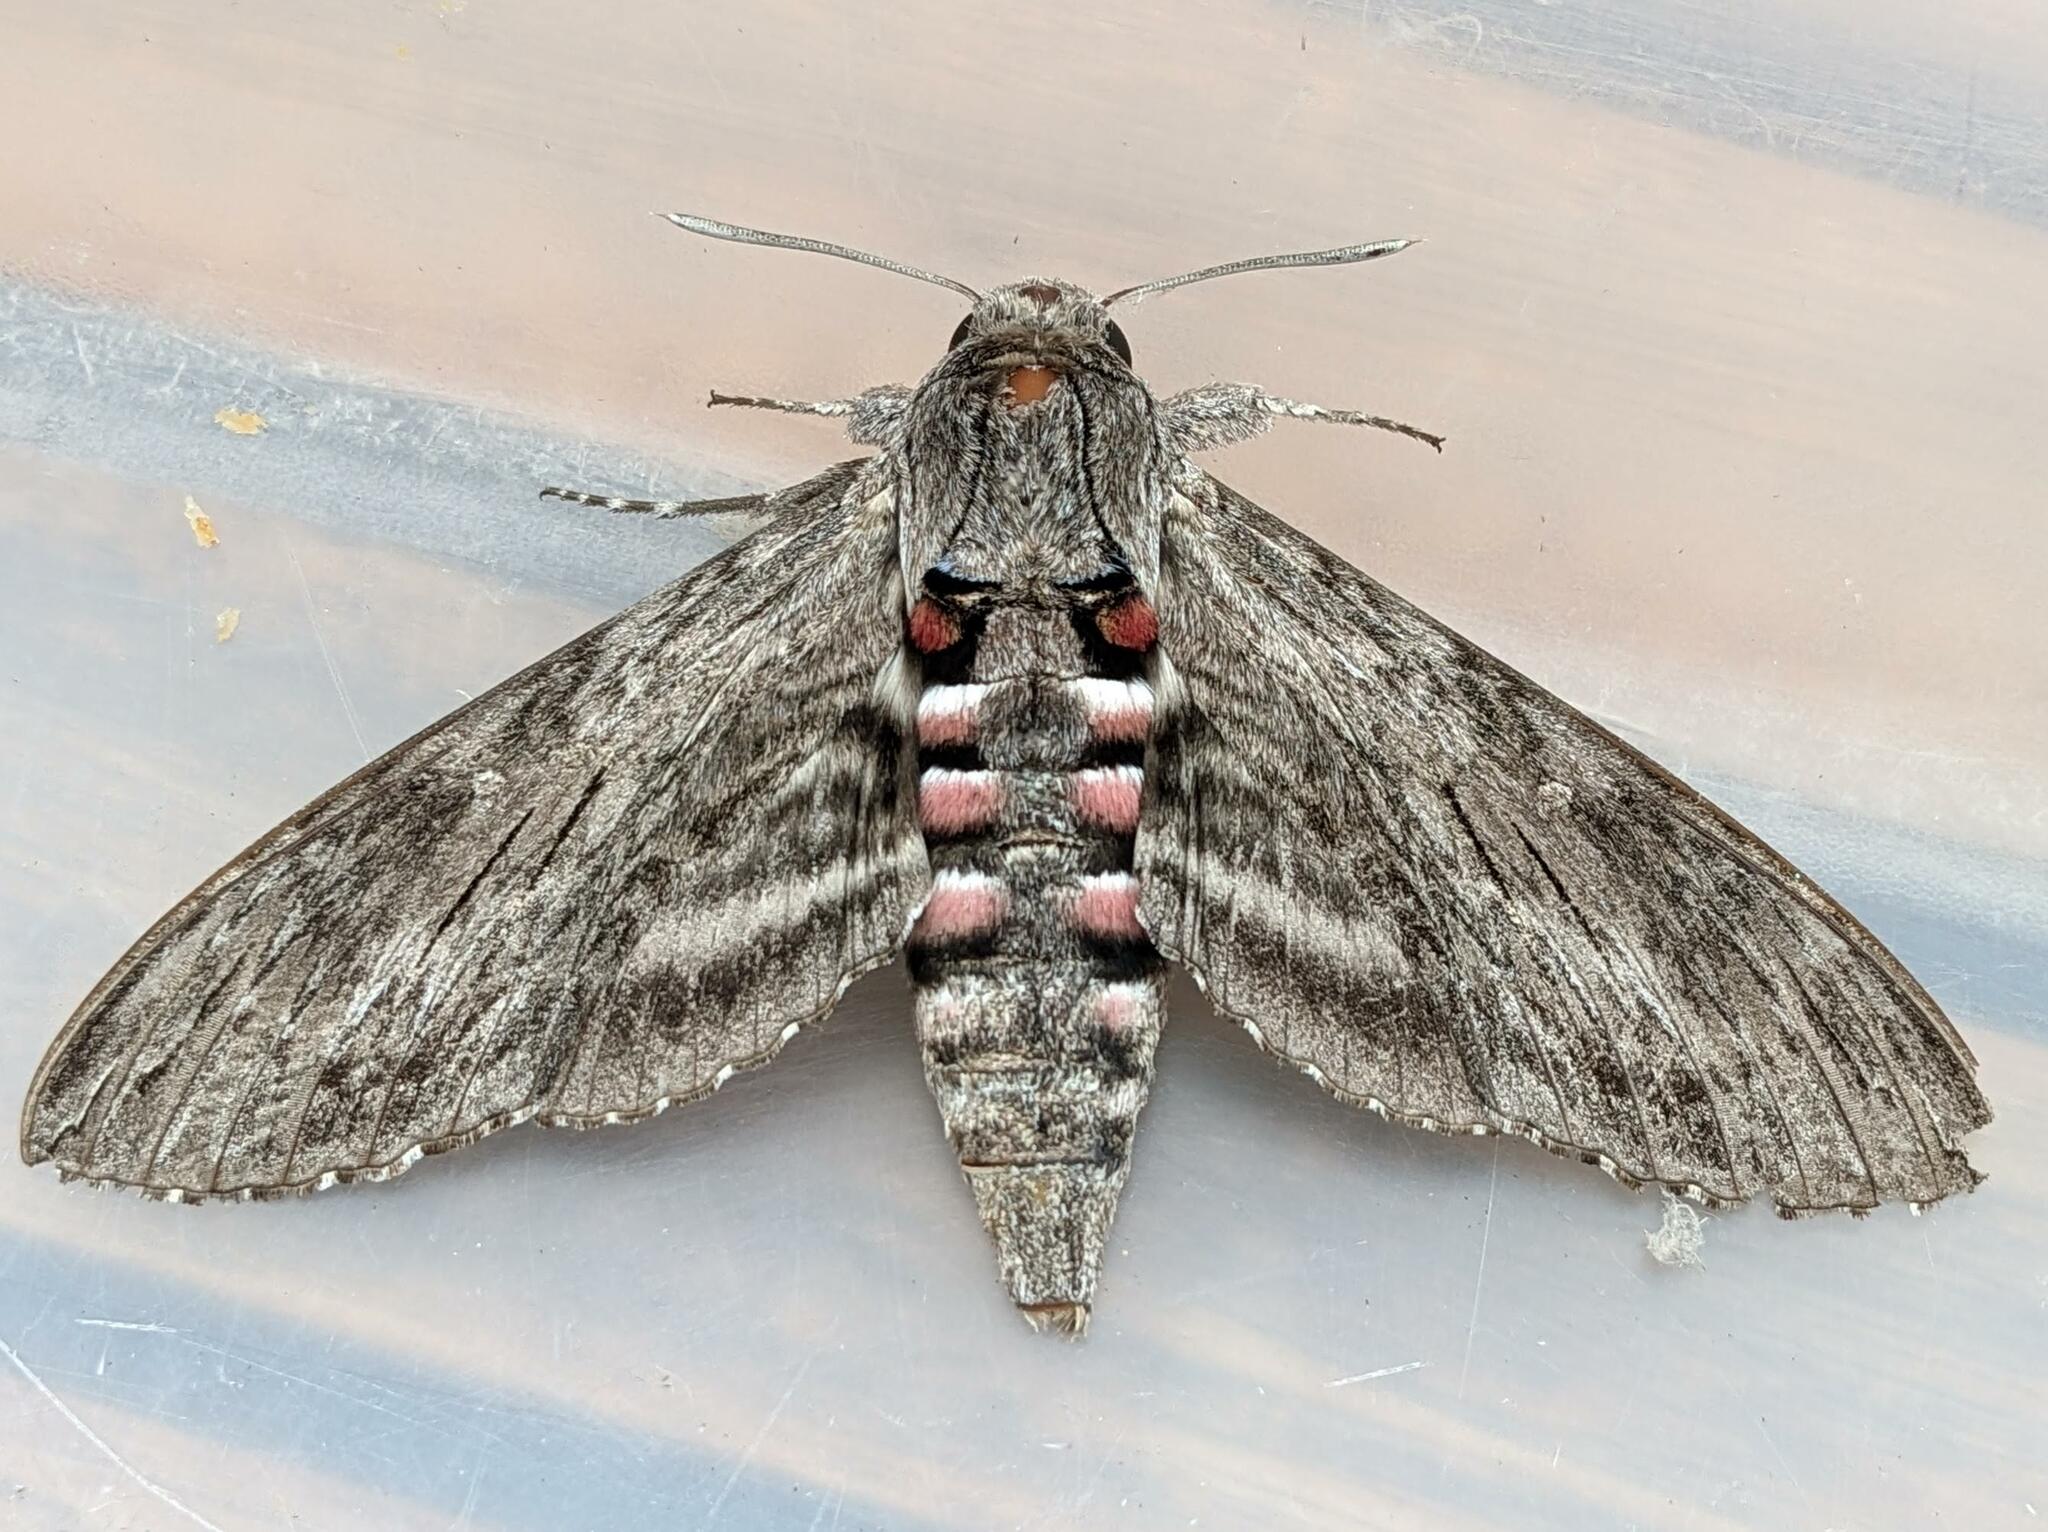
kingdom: Animalia
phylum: Arthropoda
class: Insecta
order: Lepidoptera
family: Sphingidae
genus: Agrius
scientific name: Agrius convolvuli
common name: Convolvulus hawkmoth
